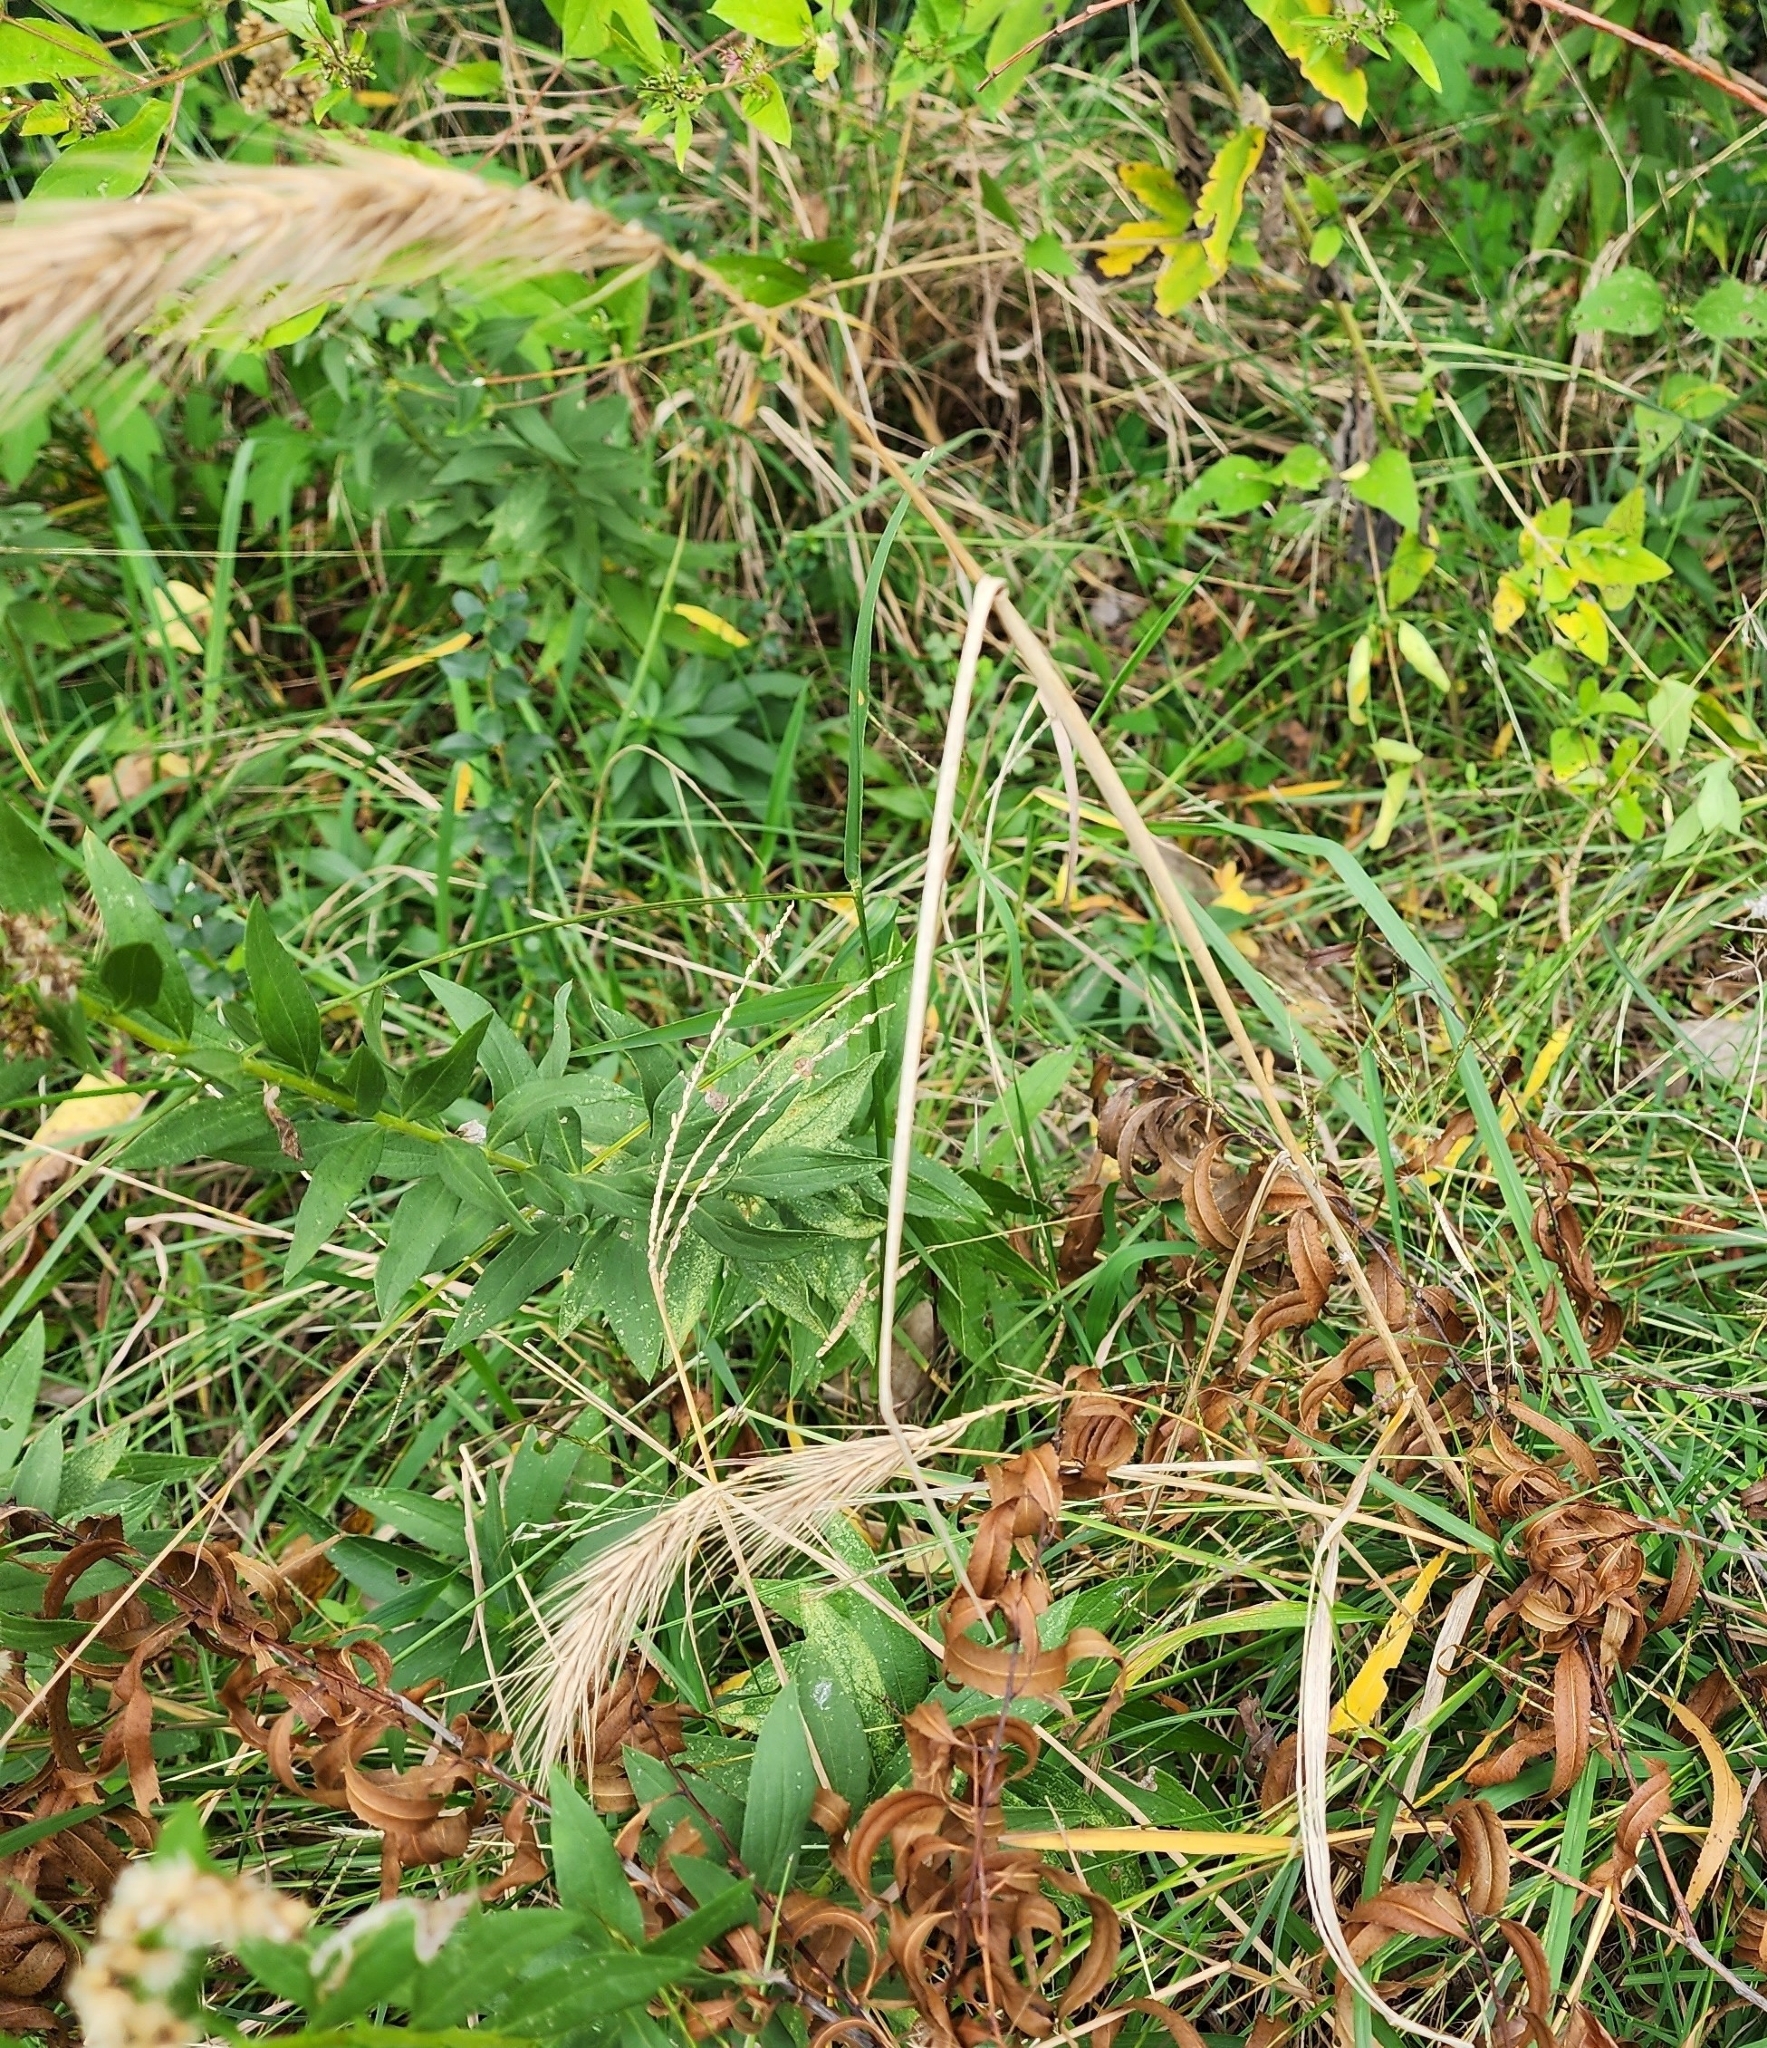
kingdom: Plantae
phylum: Tracheophyta
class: Liliopsida
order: Poales
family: Poaceae
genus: Elymus
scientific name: Elymus virginicus
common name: Common eastern wildrye
